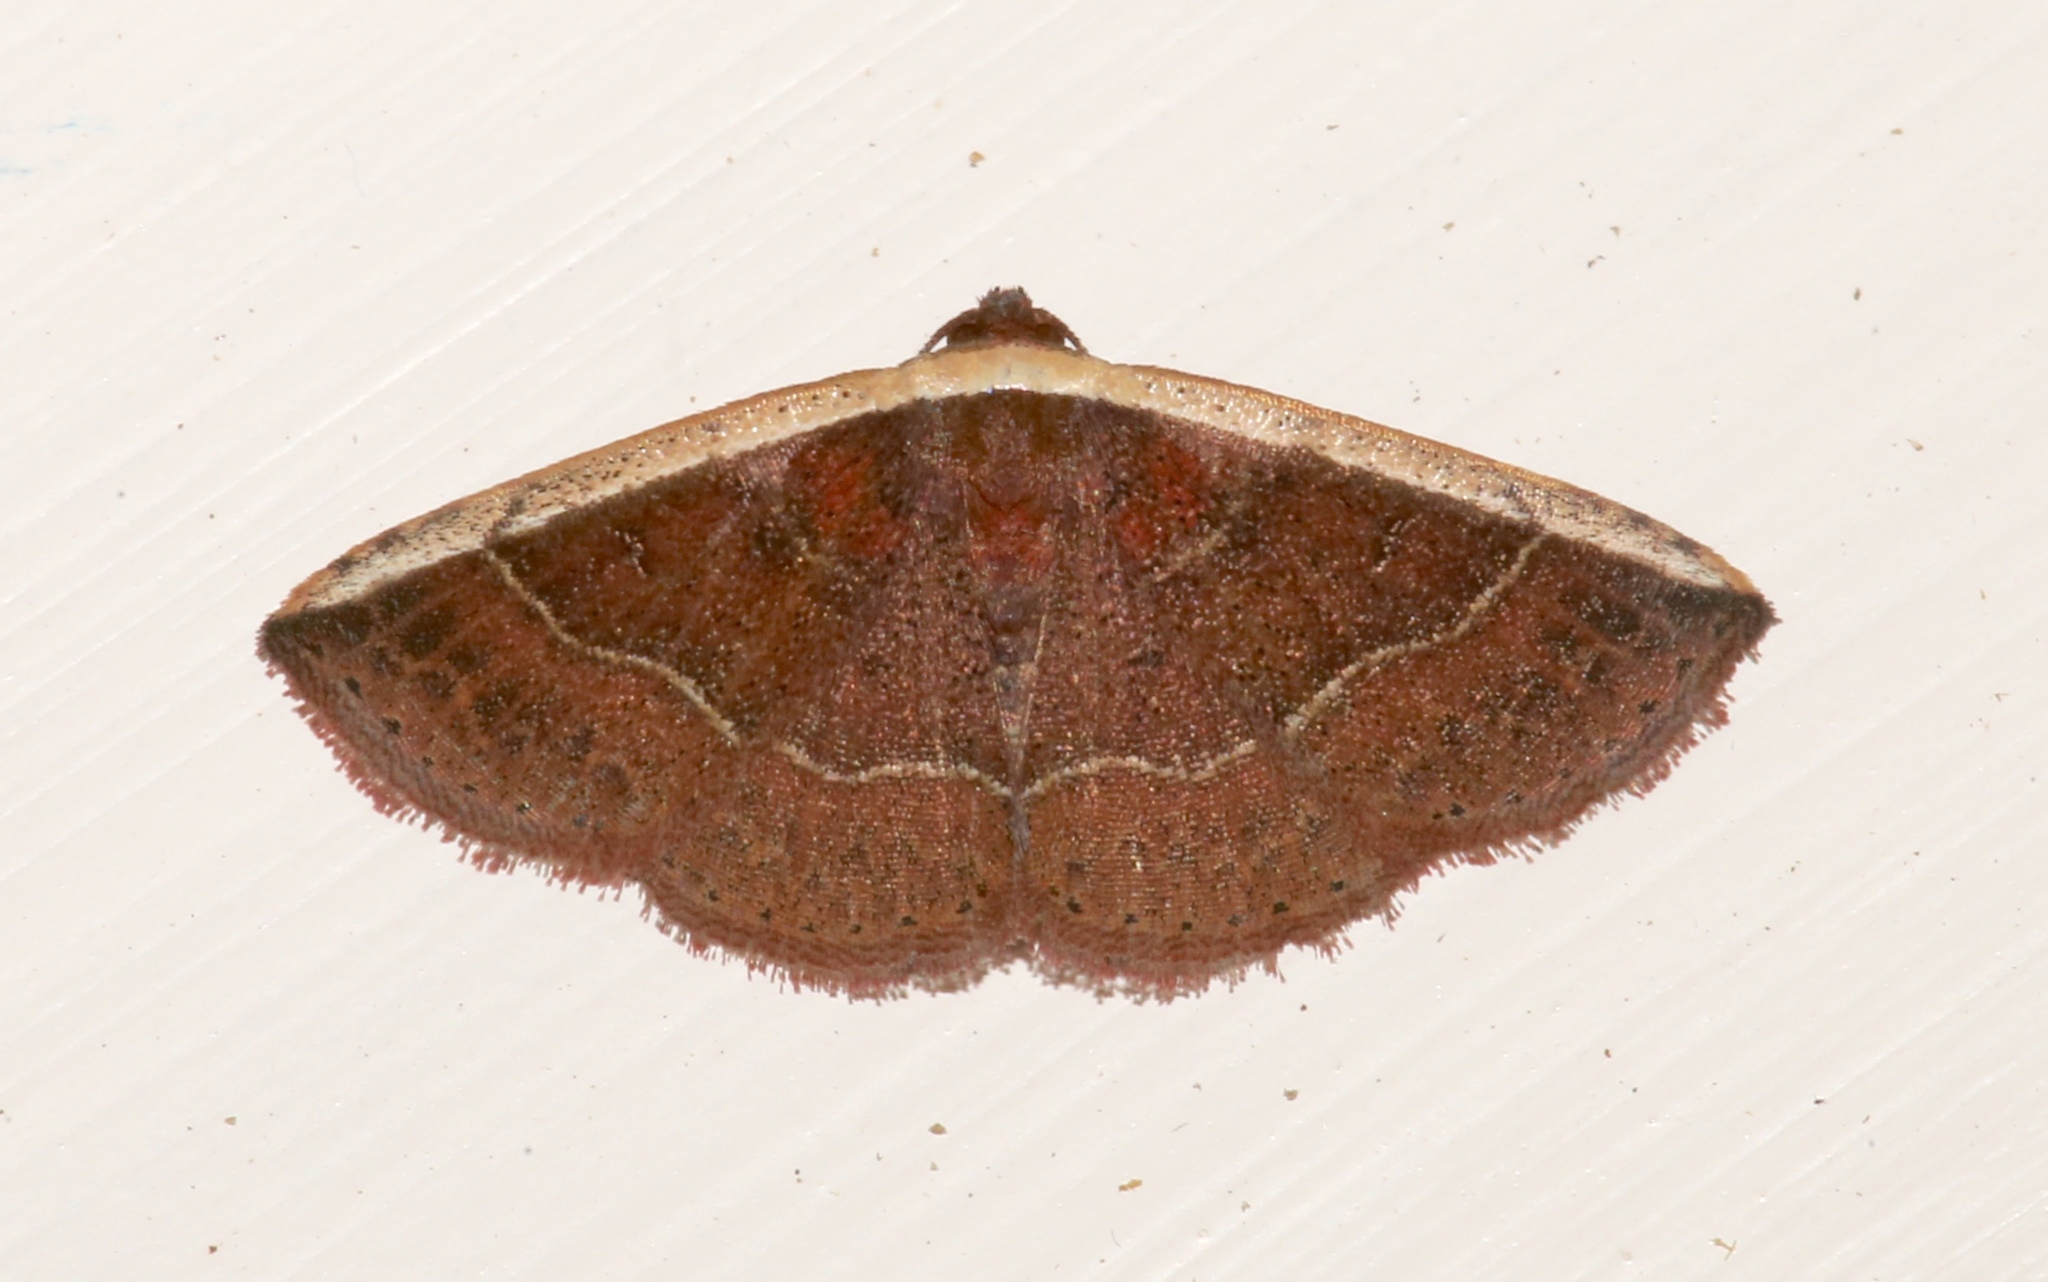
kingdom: Animalia
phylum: Arthropoda
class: Insecta
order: Lepidoptera
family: Noctuidae
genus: Ozarba
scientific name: Ozarba albocostaliata
